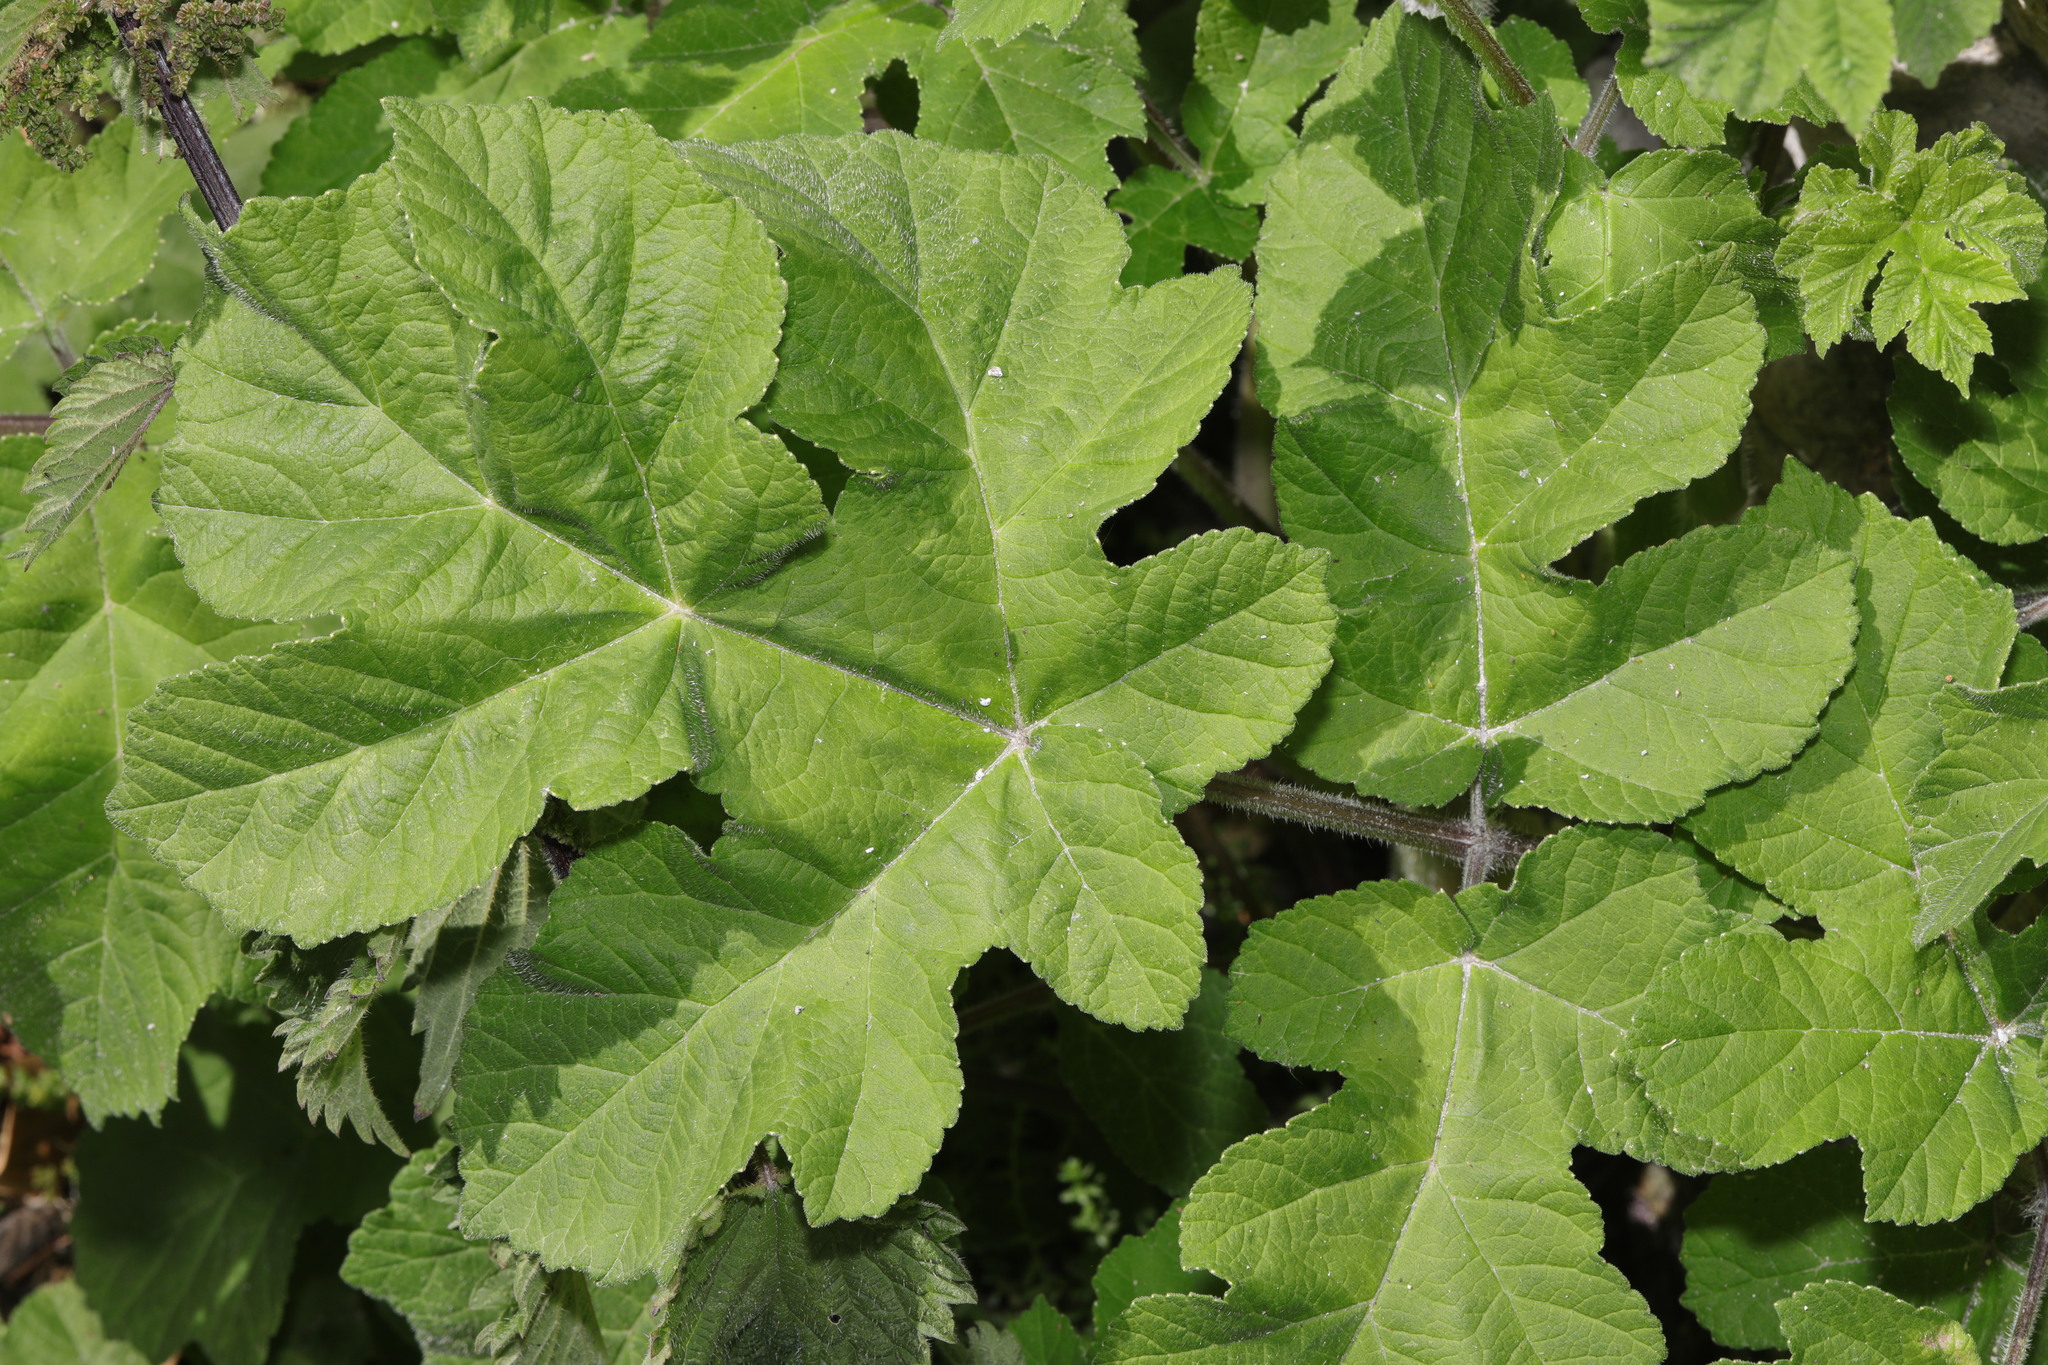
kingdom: Plantae
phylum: Tracheophyta
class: Magnoliopsida
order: Apiales
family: Apiaceae
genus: Heracleum
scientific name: Heracleum sphondylium
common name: Hogweed
